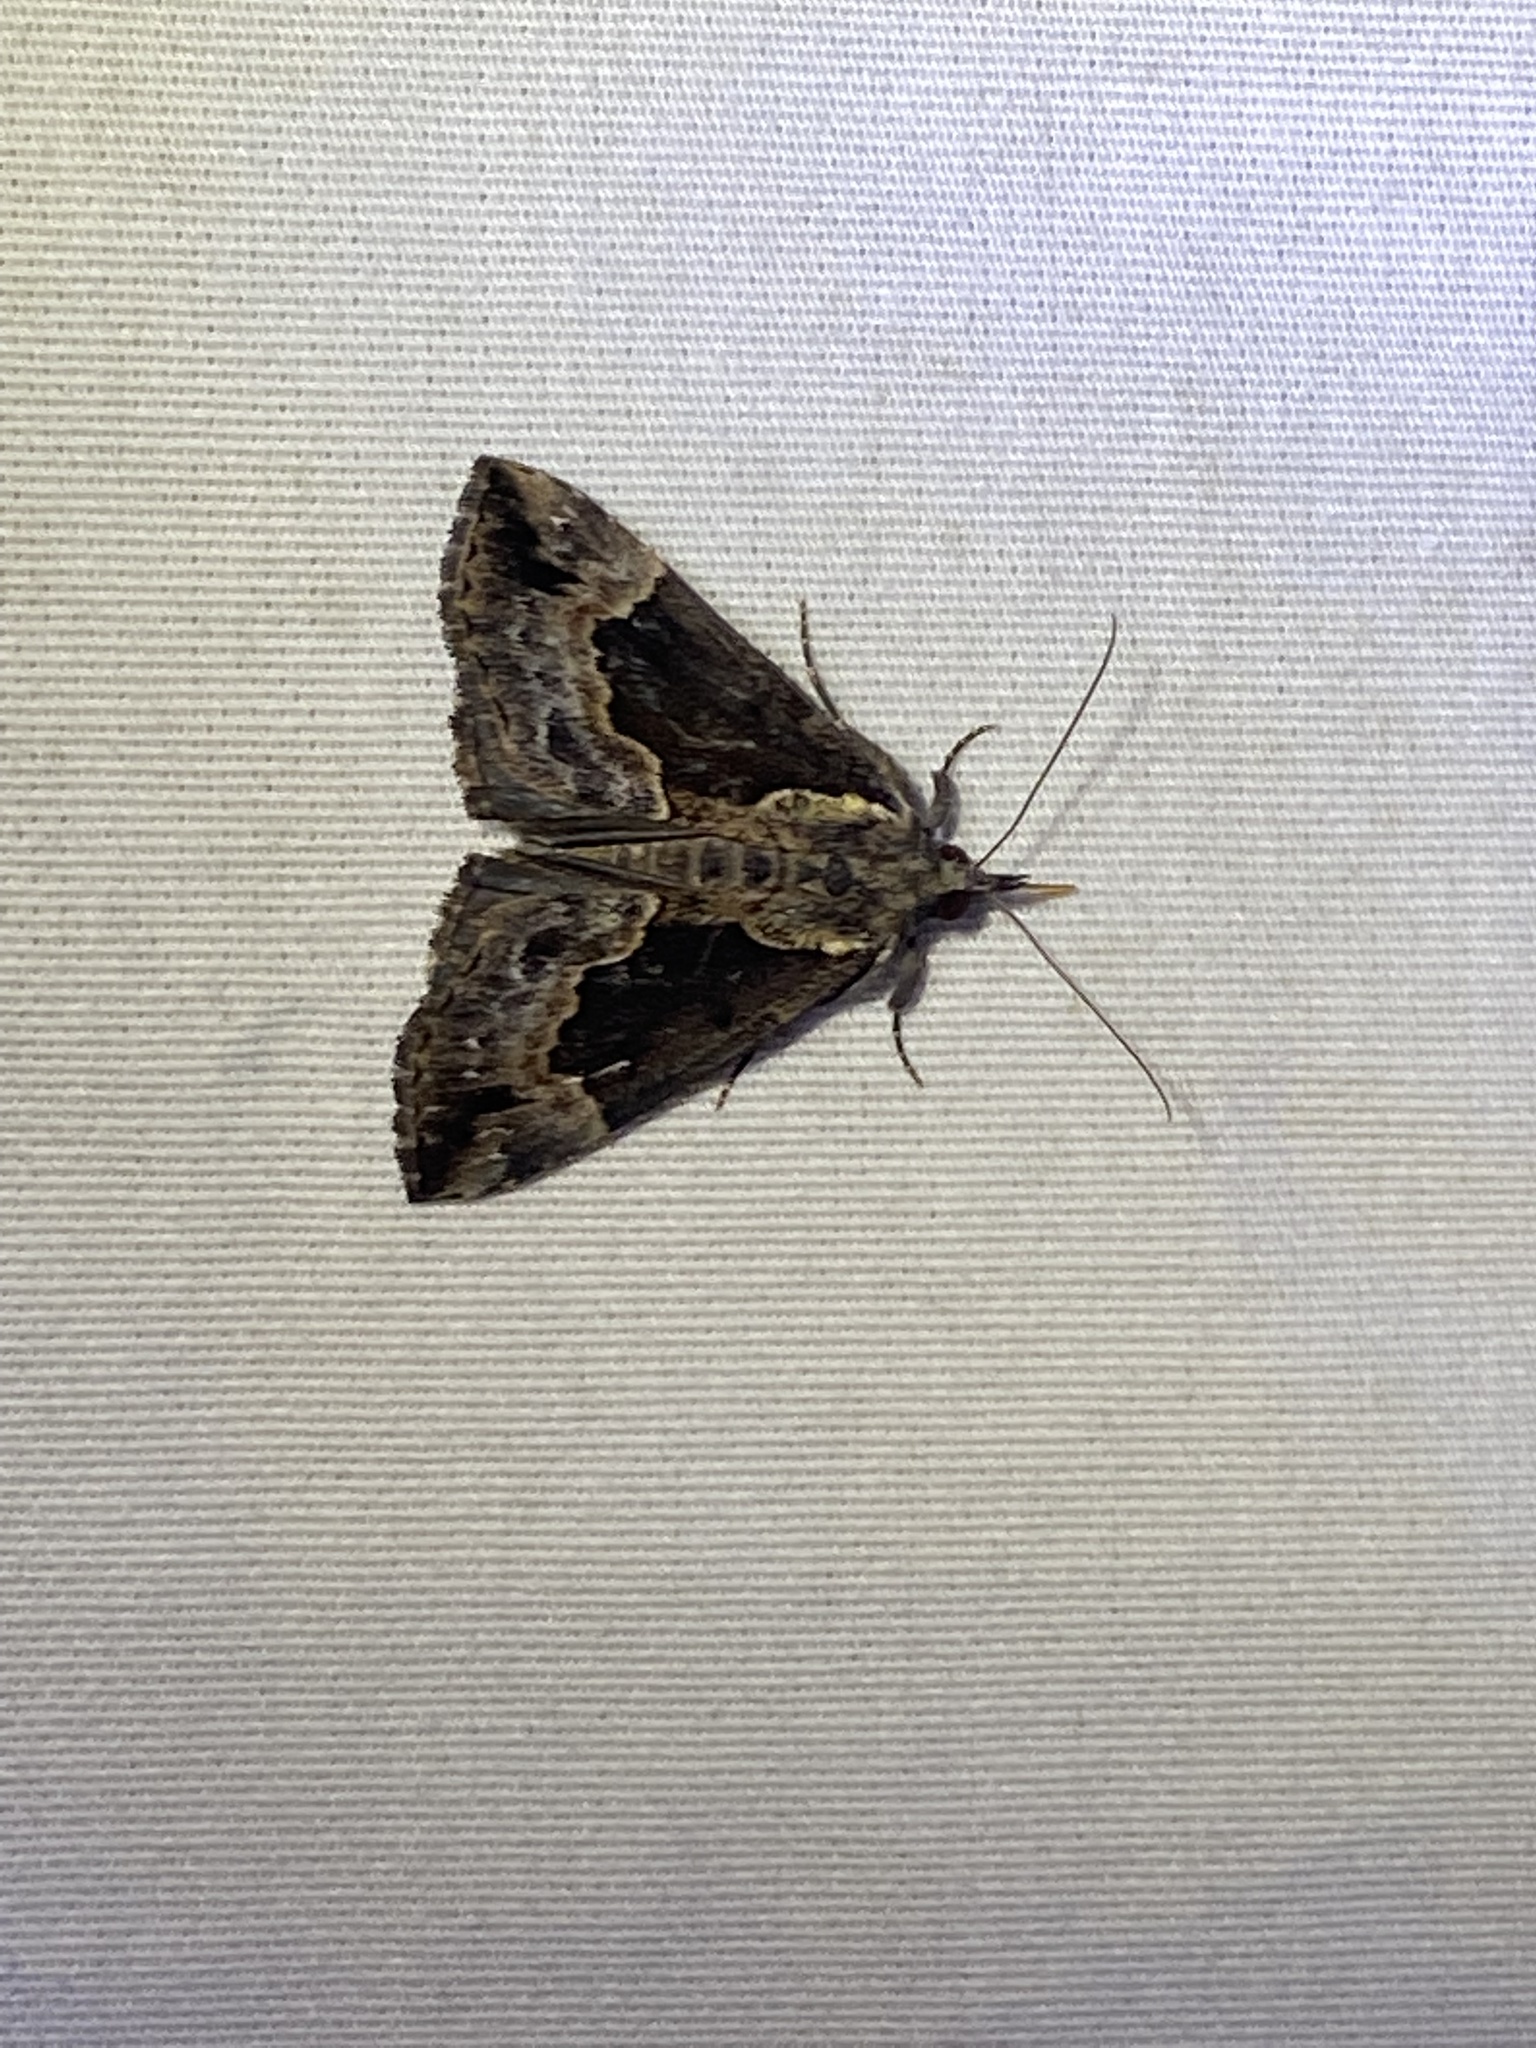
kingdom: Animalia
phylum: Arthropoda
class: Insecta
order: Lepidoptera
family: Erebidae
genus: Hypena
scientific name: Hypena baltimoralis
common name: Baltimore snout
